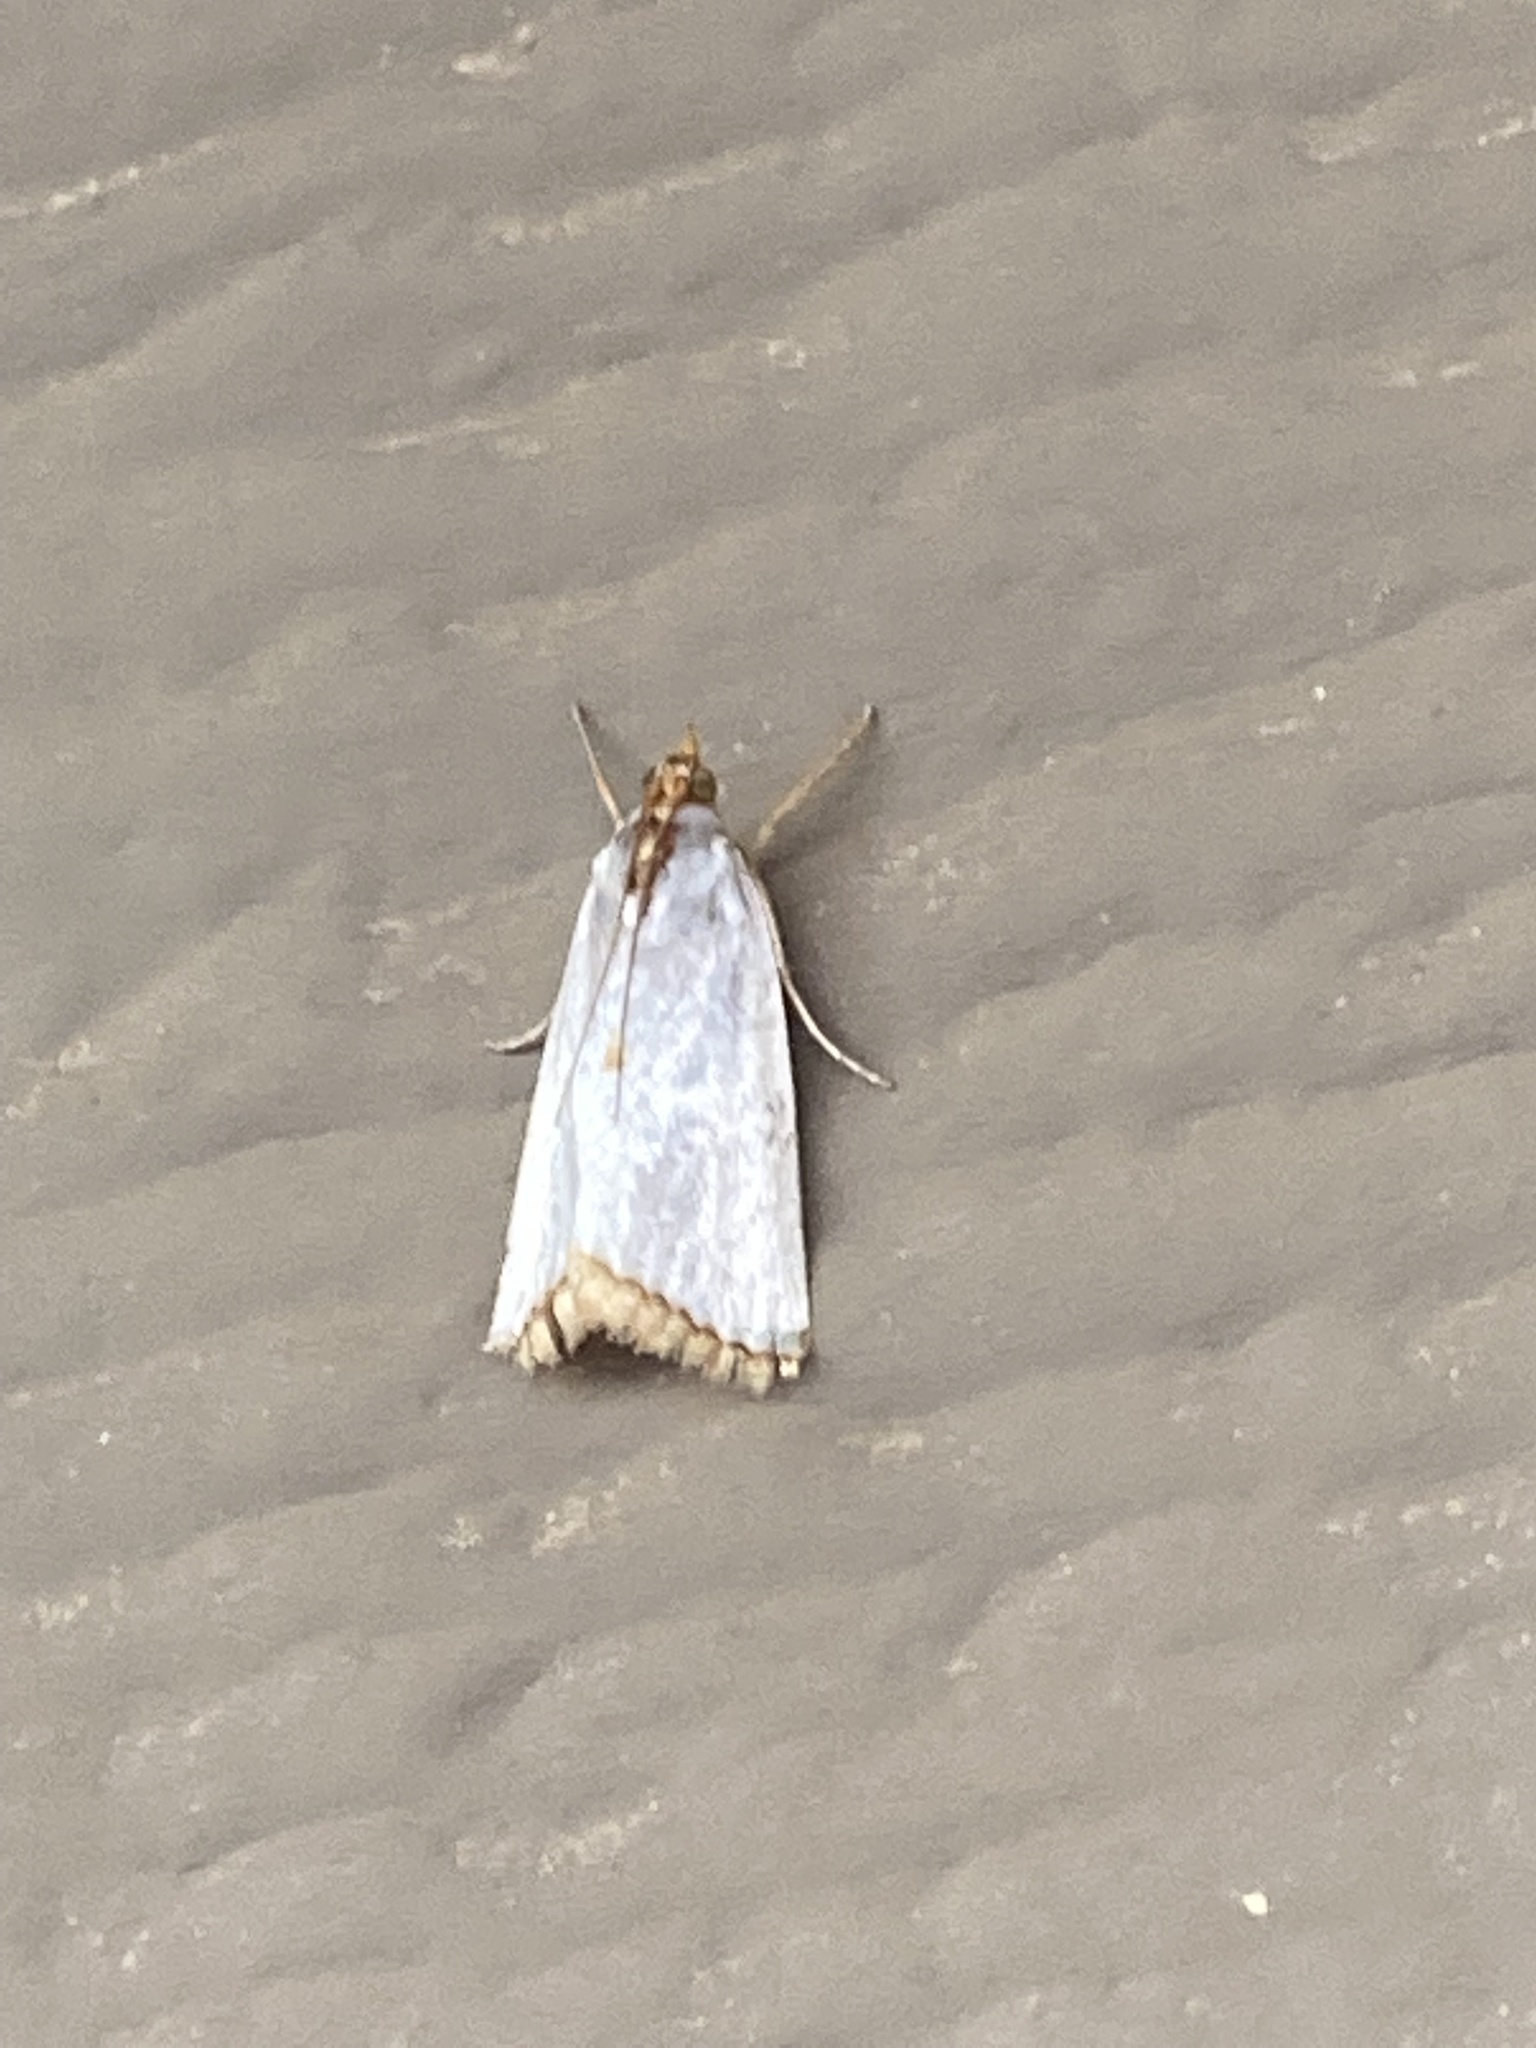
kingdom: Animalia
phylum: Arthropoda
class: Insecta
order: Lepidoptera
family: Crambidae
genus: Argyria
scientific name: Argyria nivalis
